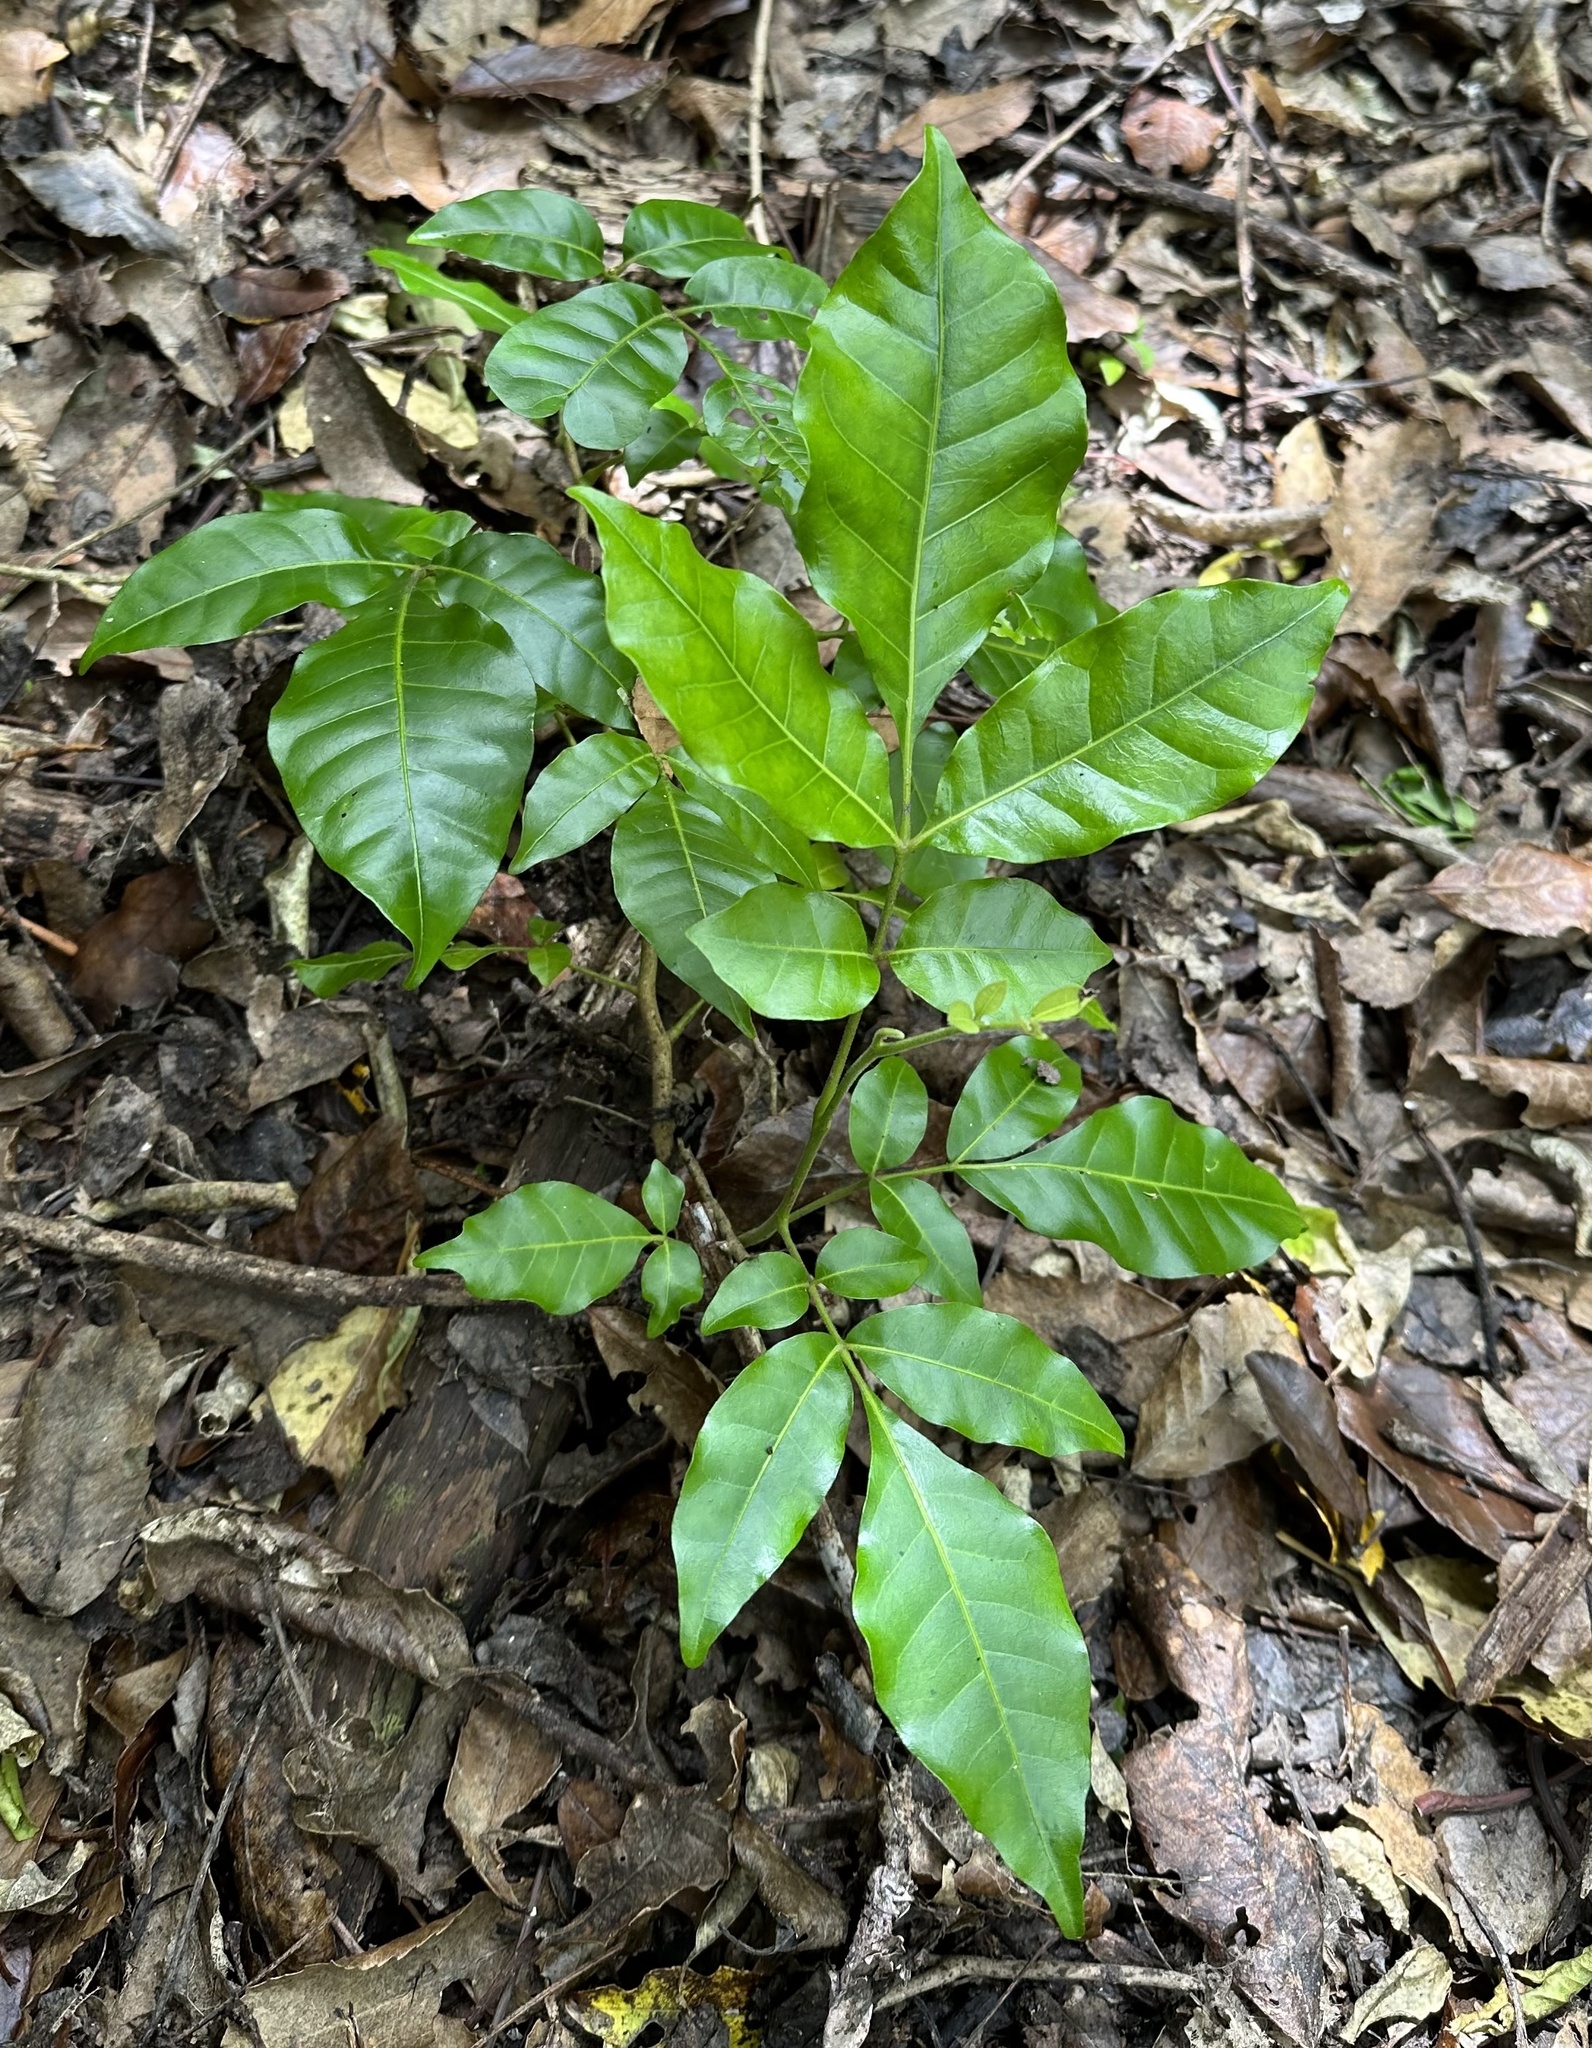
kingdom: Plantae
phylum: Tracheophyta
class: Magnoliopsida
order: Sapindales
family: Meliaceae
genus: Didymocheton
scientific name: Didymocheton spectabilis
